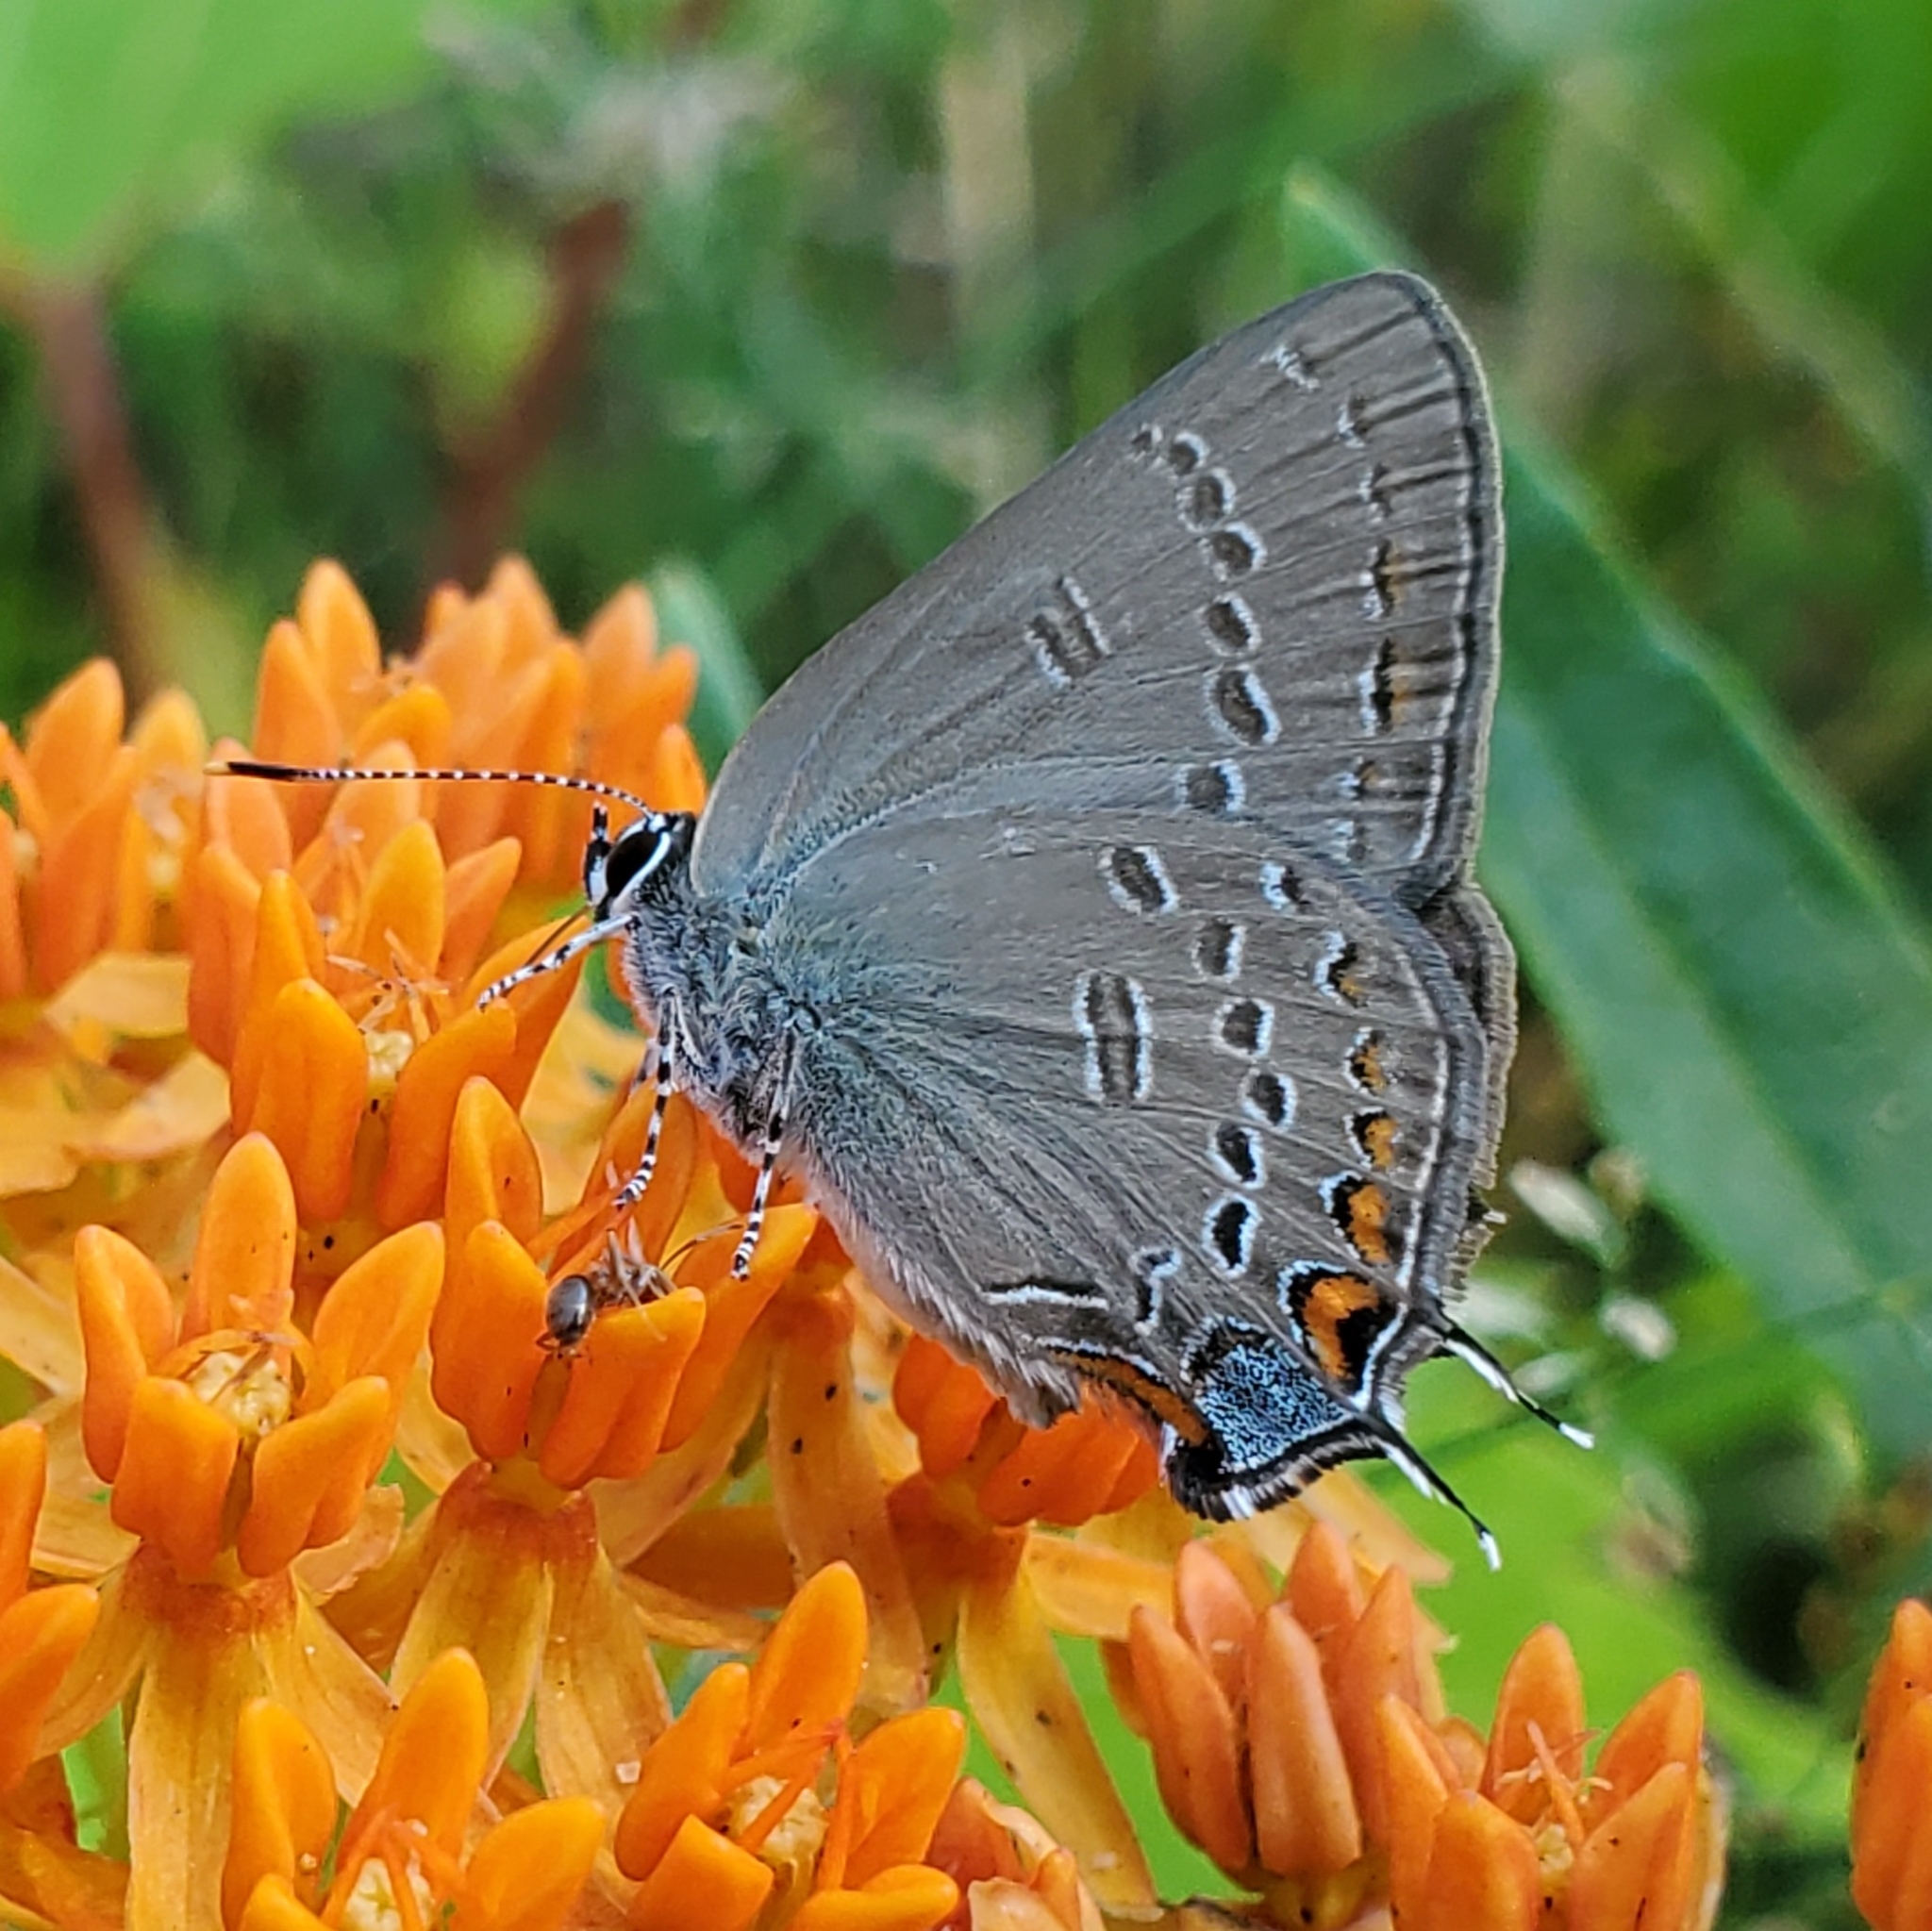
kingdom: Animalia
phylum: Arthropoda
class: Insecta
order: Lepidoptera
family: Lycaenidae
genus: Satyrium
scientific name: Satyrium edwardsii
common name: Edwards' hairstreak
